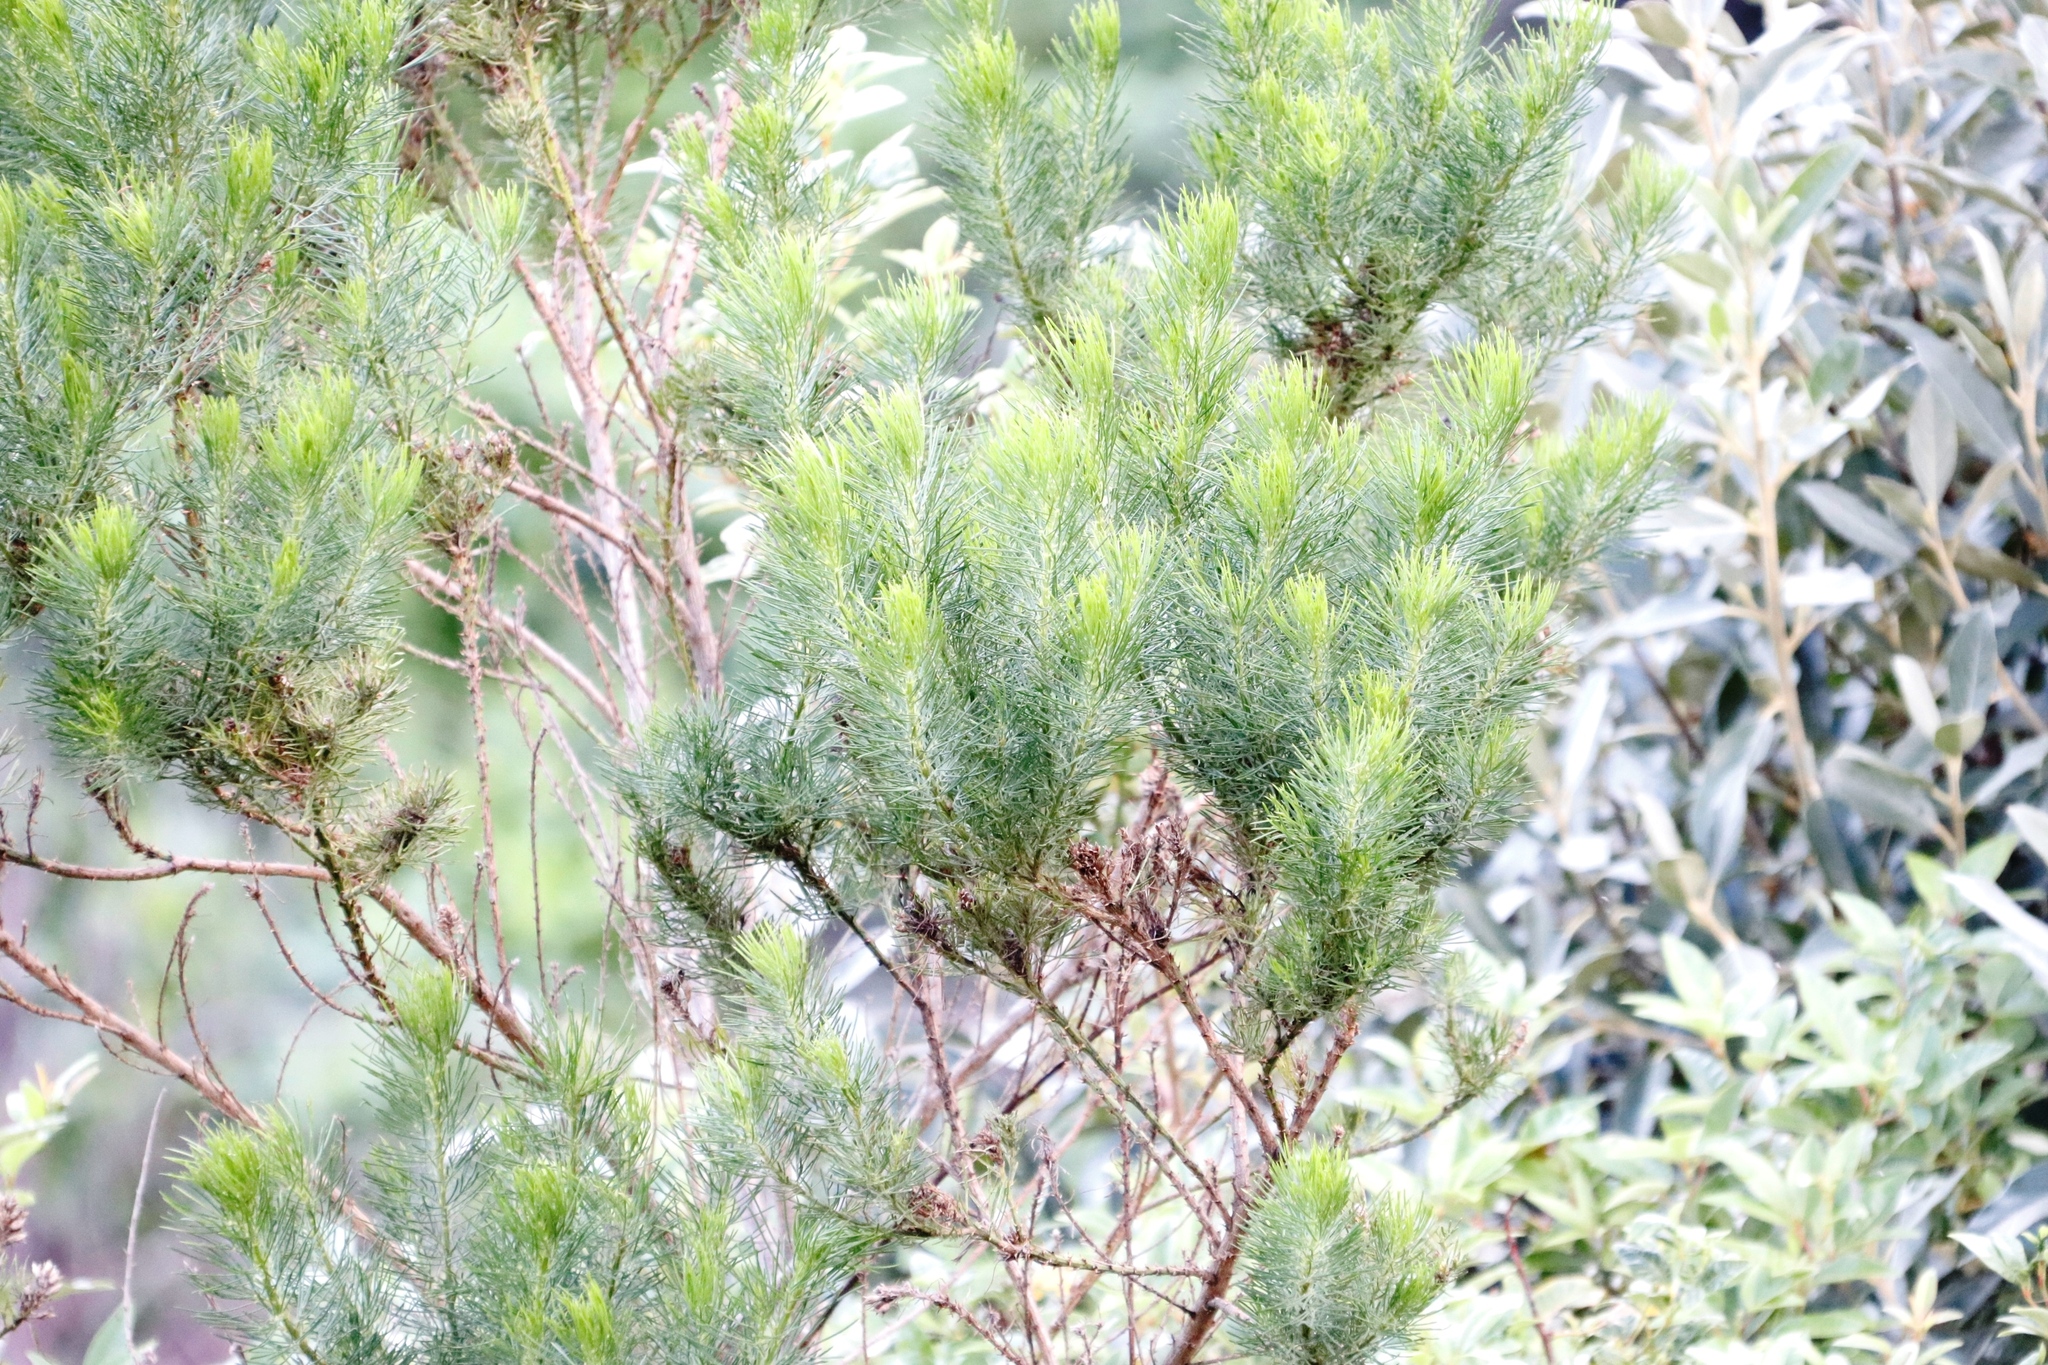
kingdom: Plantae
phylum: Tracheophyta
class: Magnoliopsida
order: Fabales
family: Fabaceae
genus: Psoralea
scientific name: Psoralea pinnata
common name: African scurfpea
